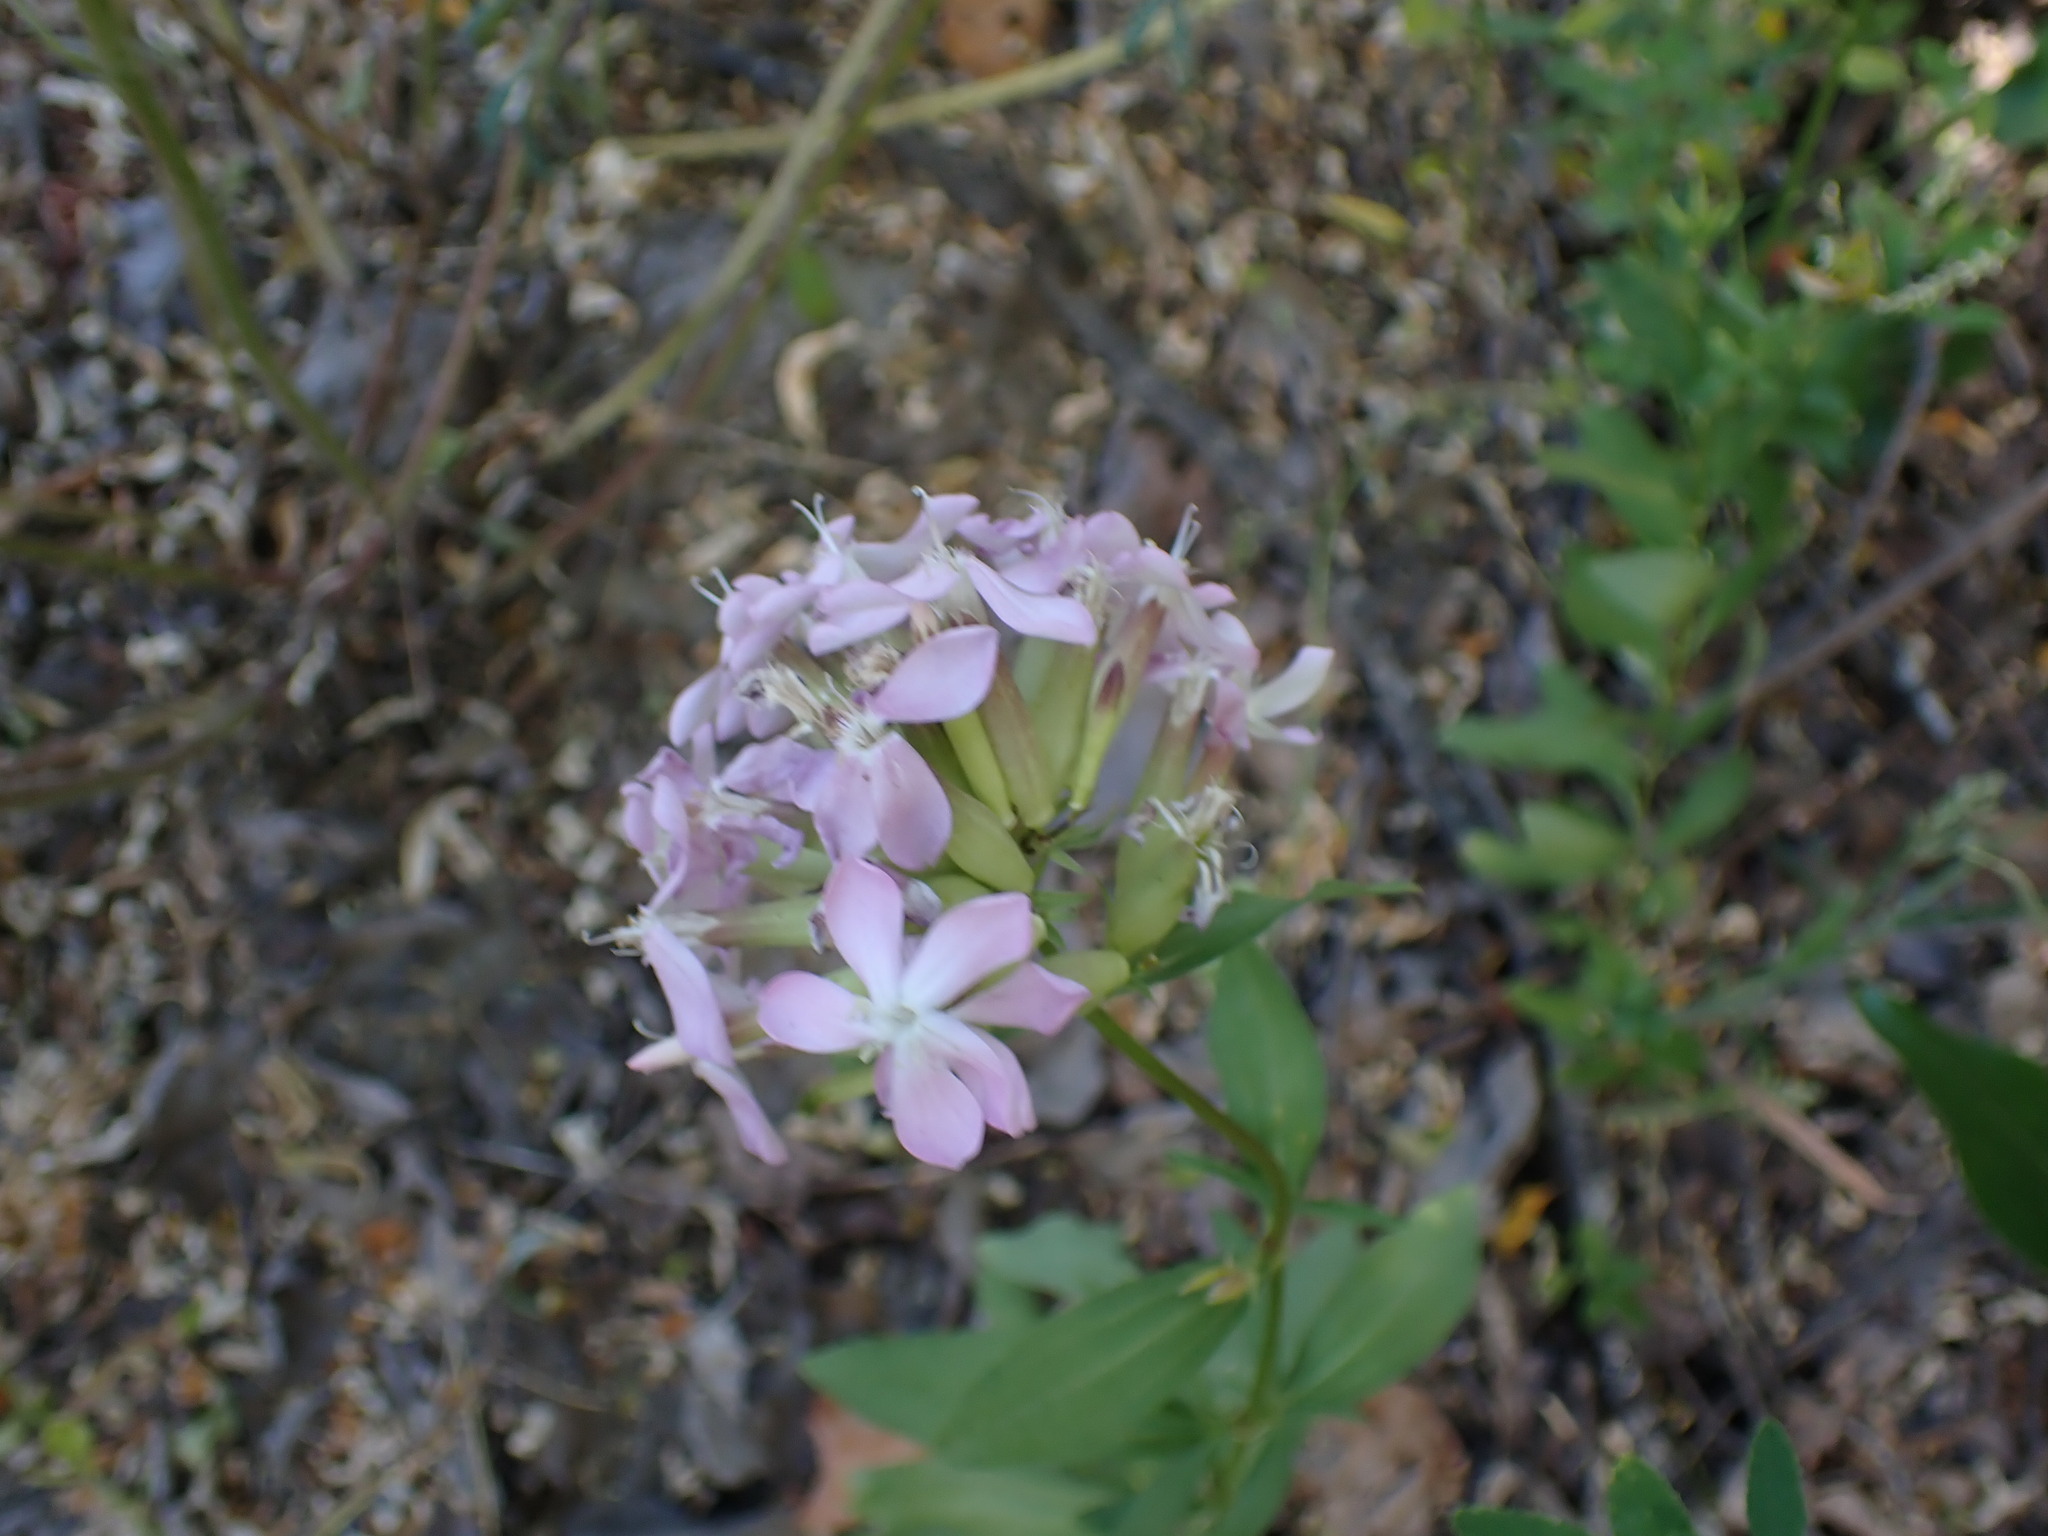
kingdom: Plantae
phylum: Tracheophyta
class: Magnoliopsida
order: Caryophyllales
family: Caryophyllaceae
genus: Saponaria
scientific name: Saponaria officinalis
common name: Soapwort
